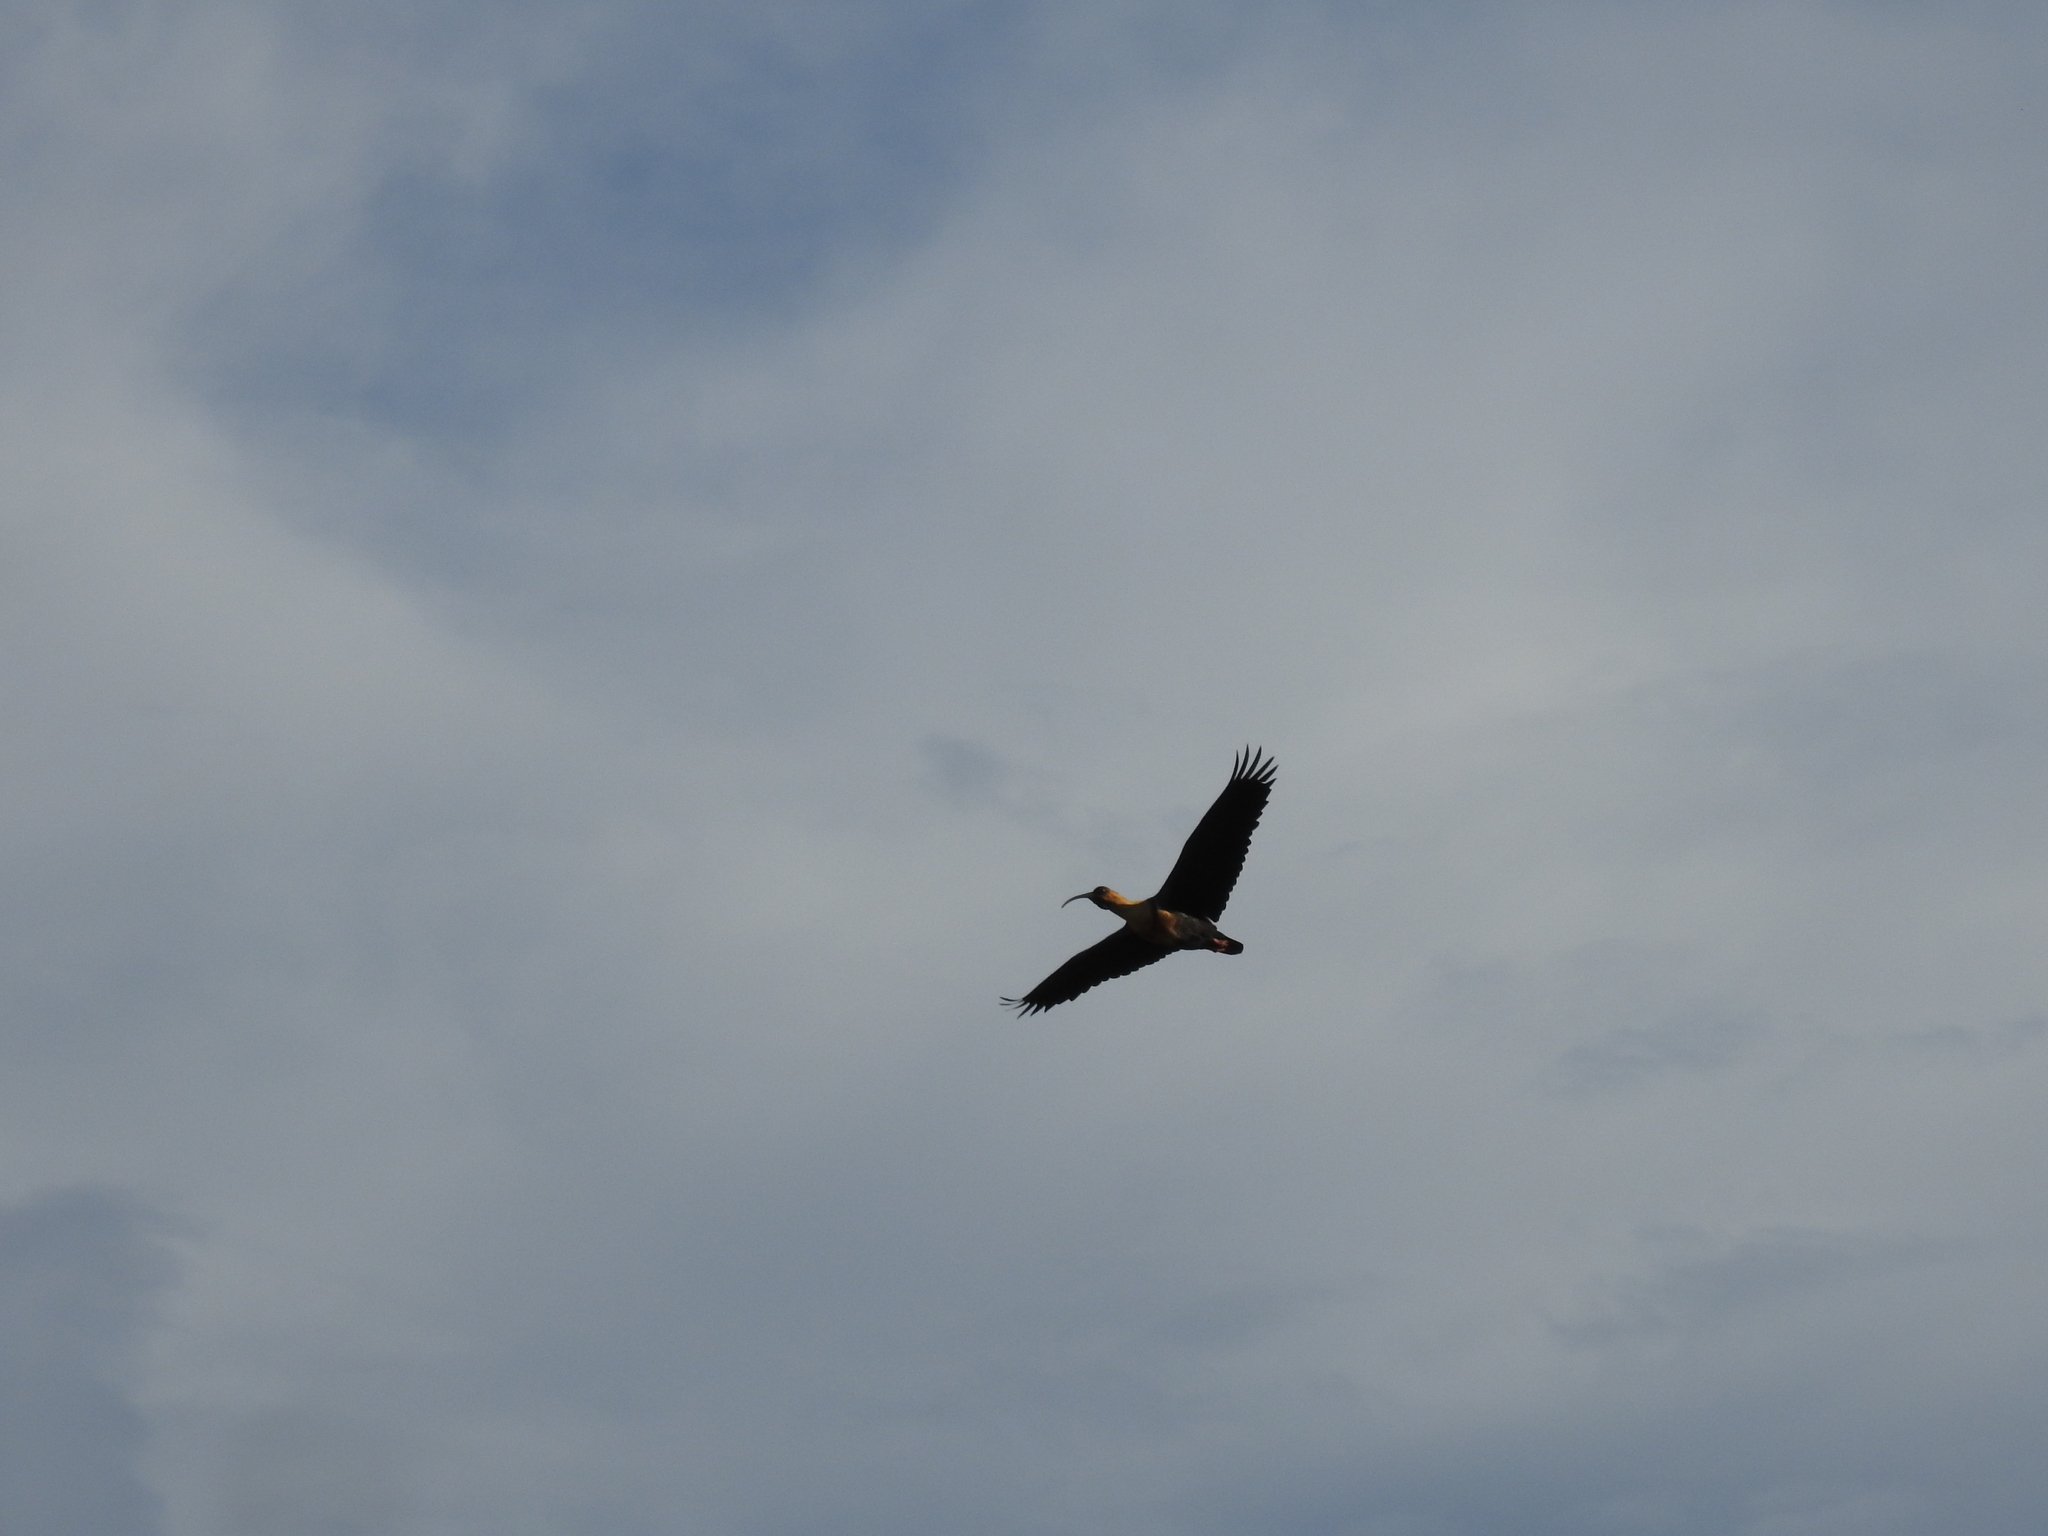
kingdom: Animalia
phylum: Chordata
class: Aves
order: Pelecaniformes
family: Threskiornithidae
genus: Theristicus
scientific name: Theristicus melanopis
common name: Black-faced ibis
